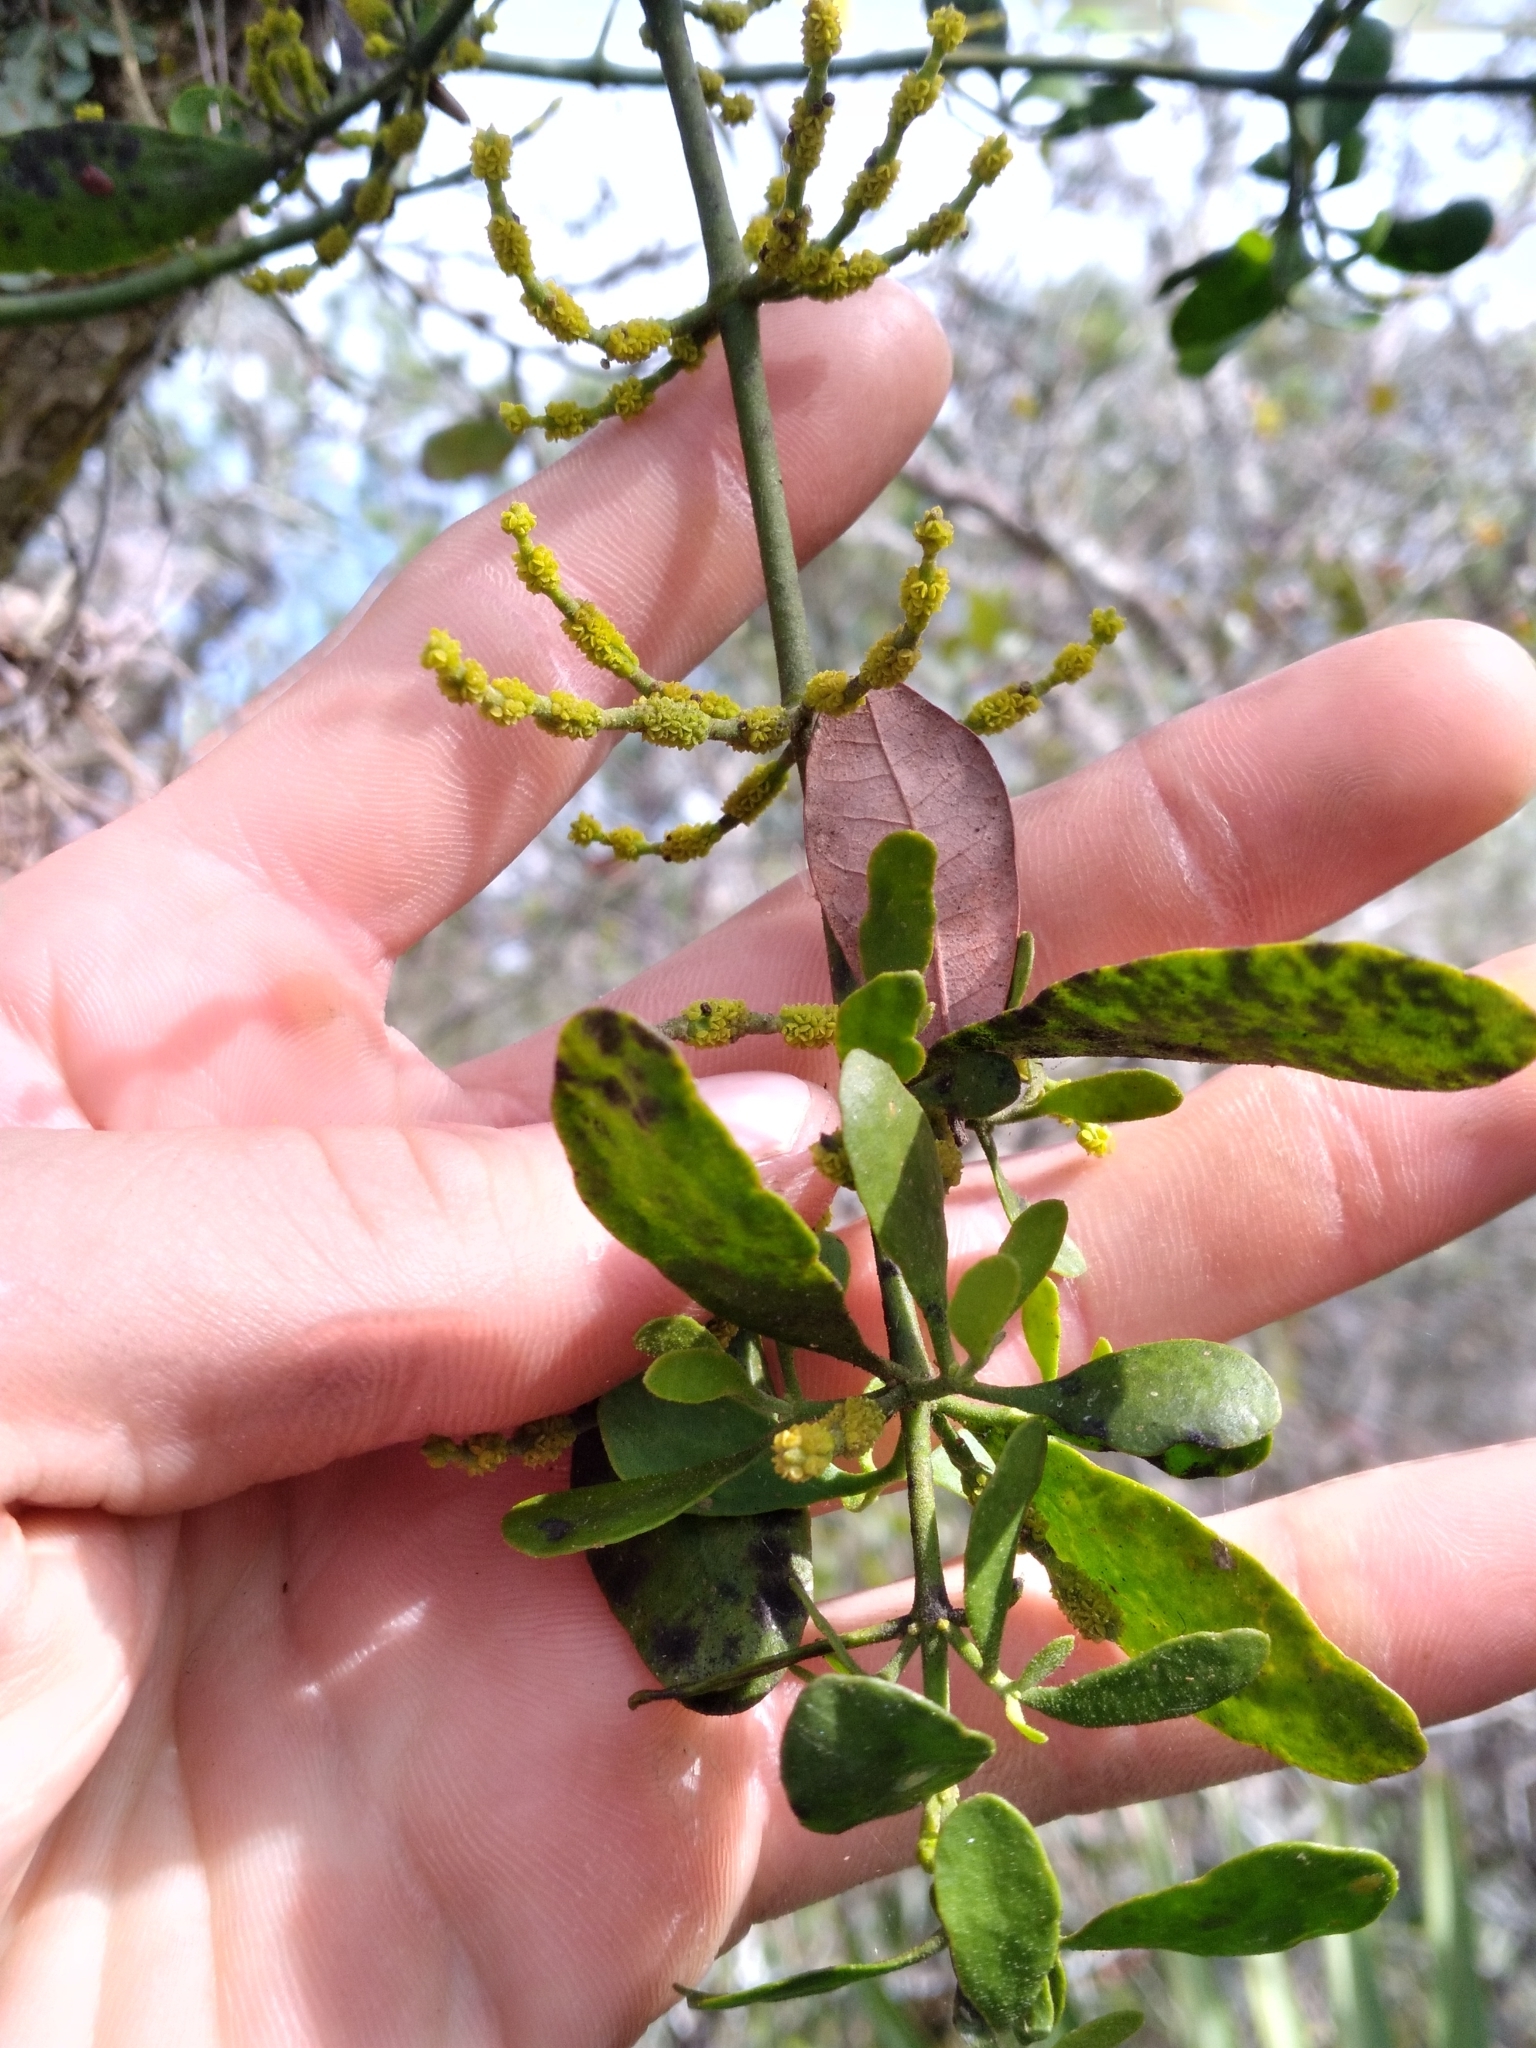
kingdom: Plantae
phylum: Tracheophyta
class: Magnoliopsida
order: Santalales
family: Viscaceae
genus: Phoradendron
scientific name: Phoradendron leucarpum
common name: Pacific mistletoe
